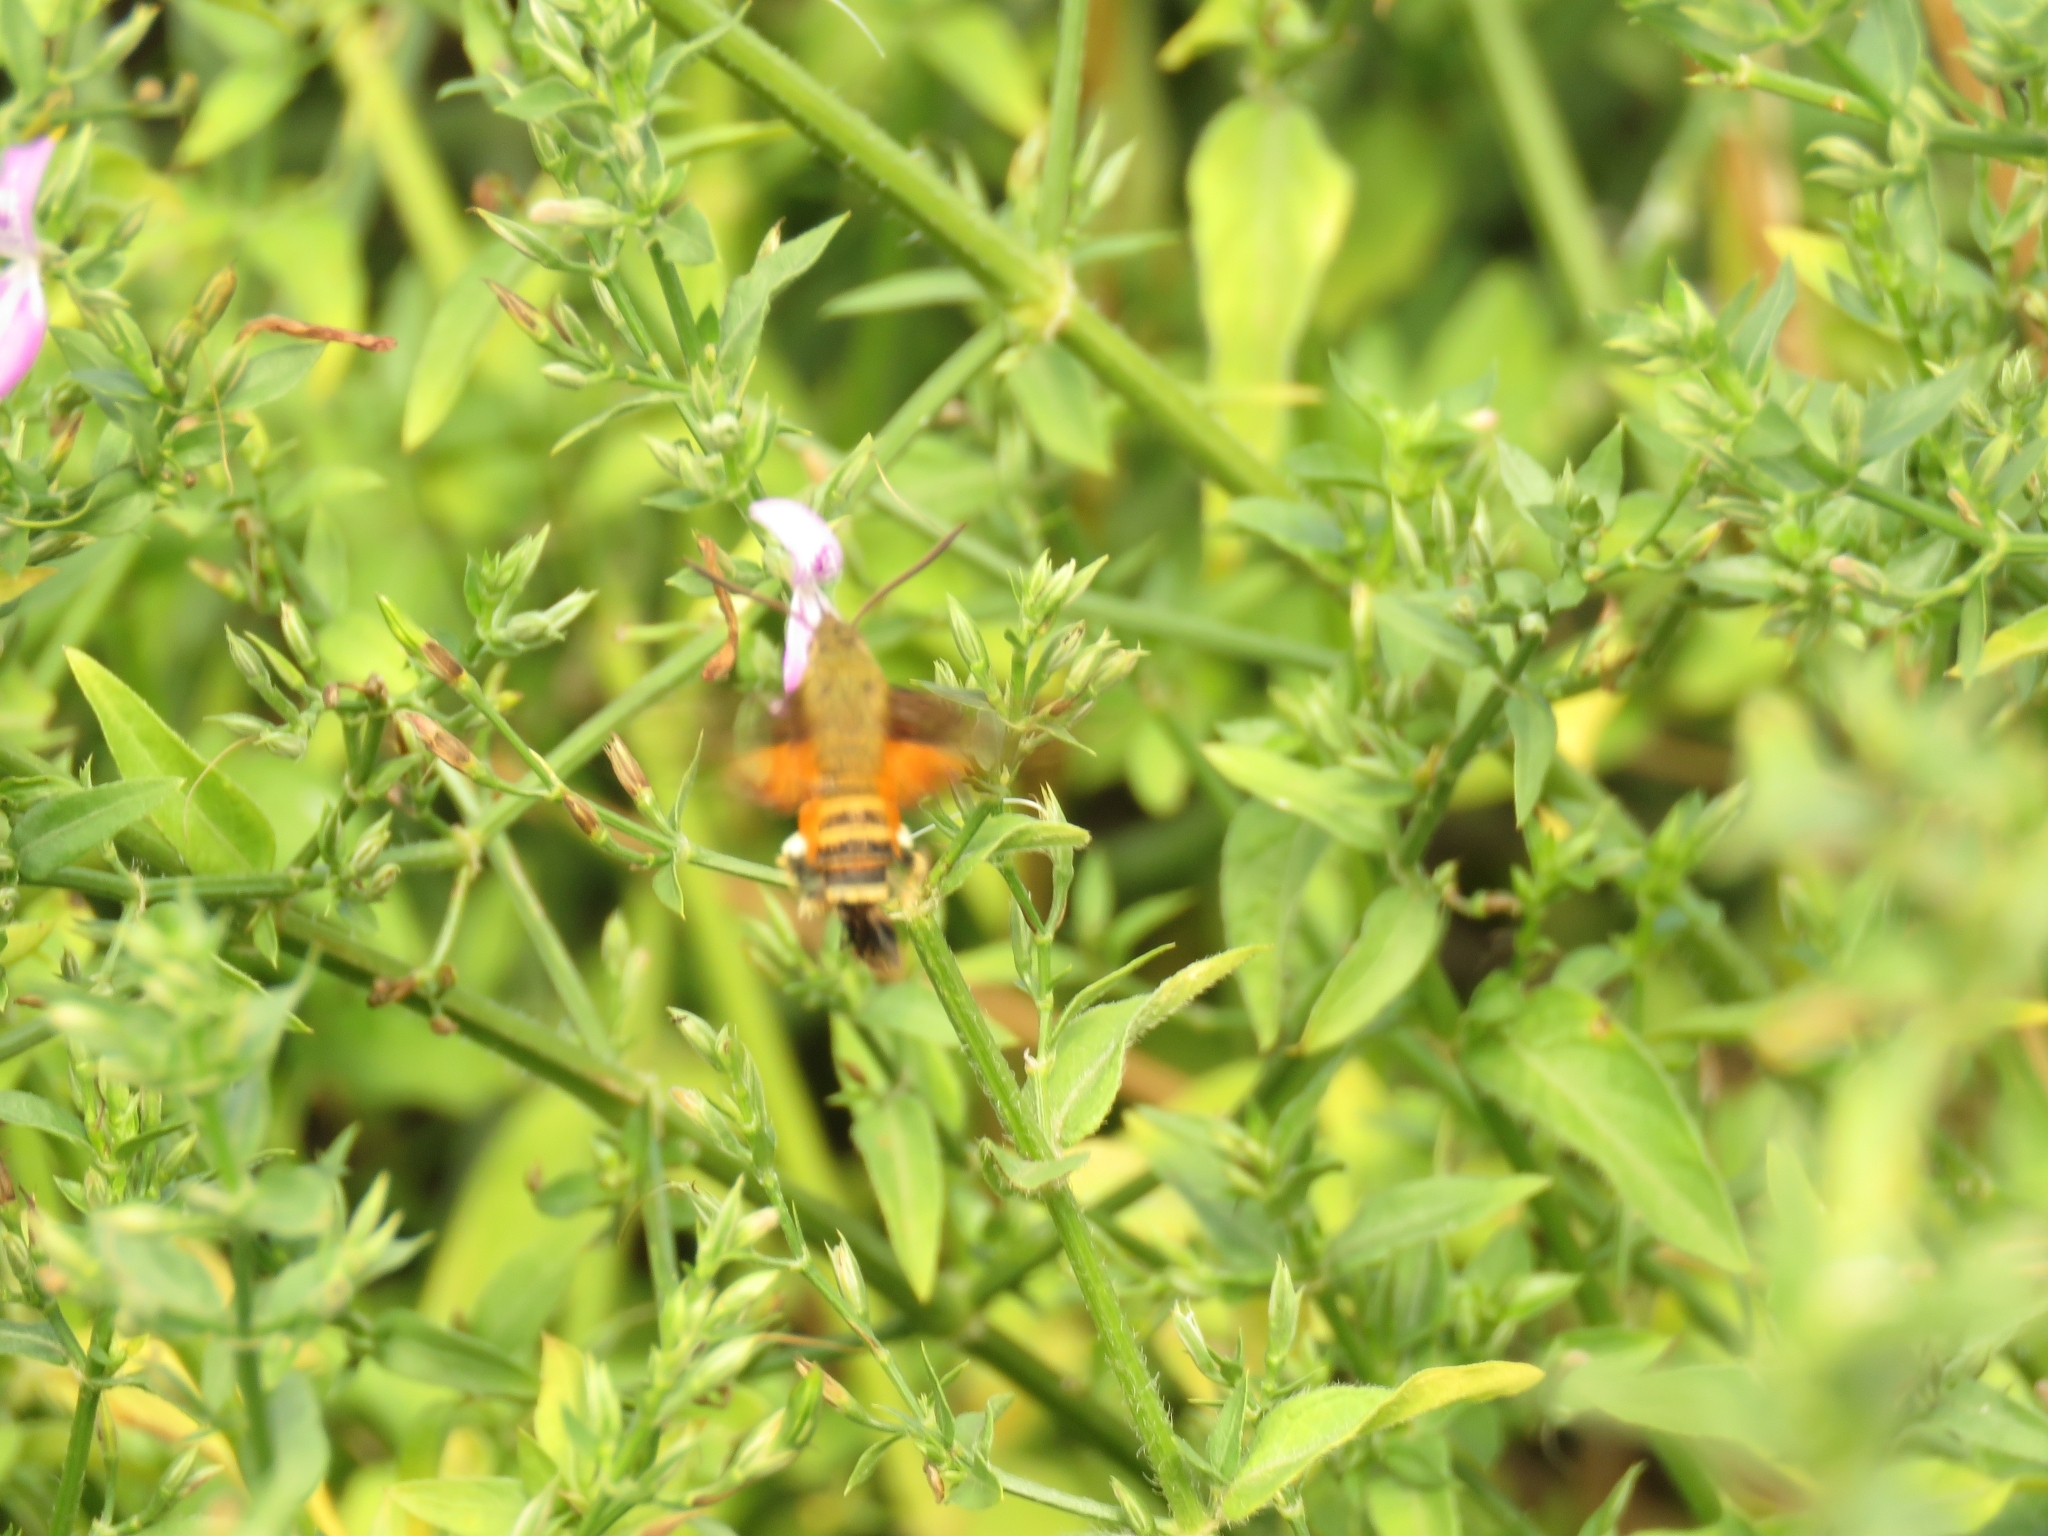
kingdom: Animalia
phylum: Arthropoda
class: Insecta
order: Lepidoptera
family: Sphingidae
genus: Macroglossum
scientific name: Macroglossum trochilus
